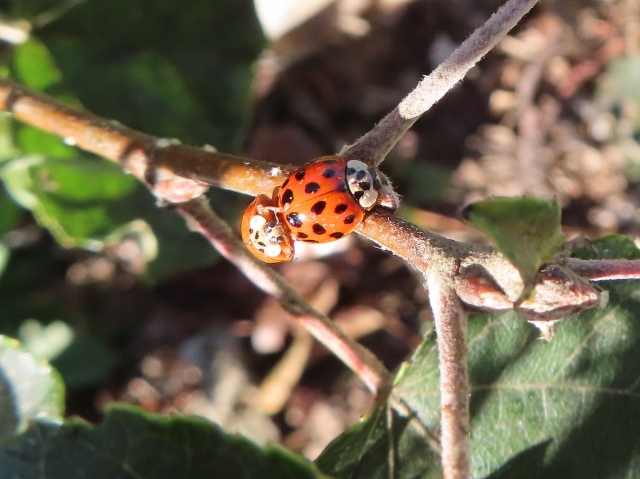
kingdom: Animalia
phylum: Arthropoda
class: Insecta
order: Coleoptera
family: Coccinellidae
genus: Harmonia
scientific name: Harmonia axyridis
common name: Harlequin ladybird
